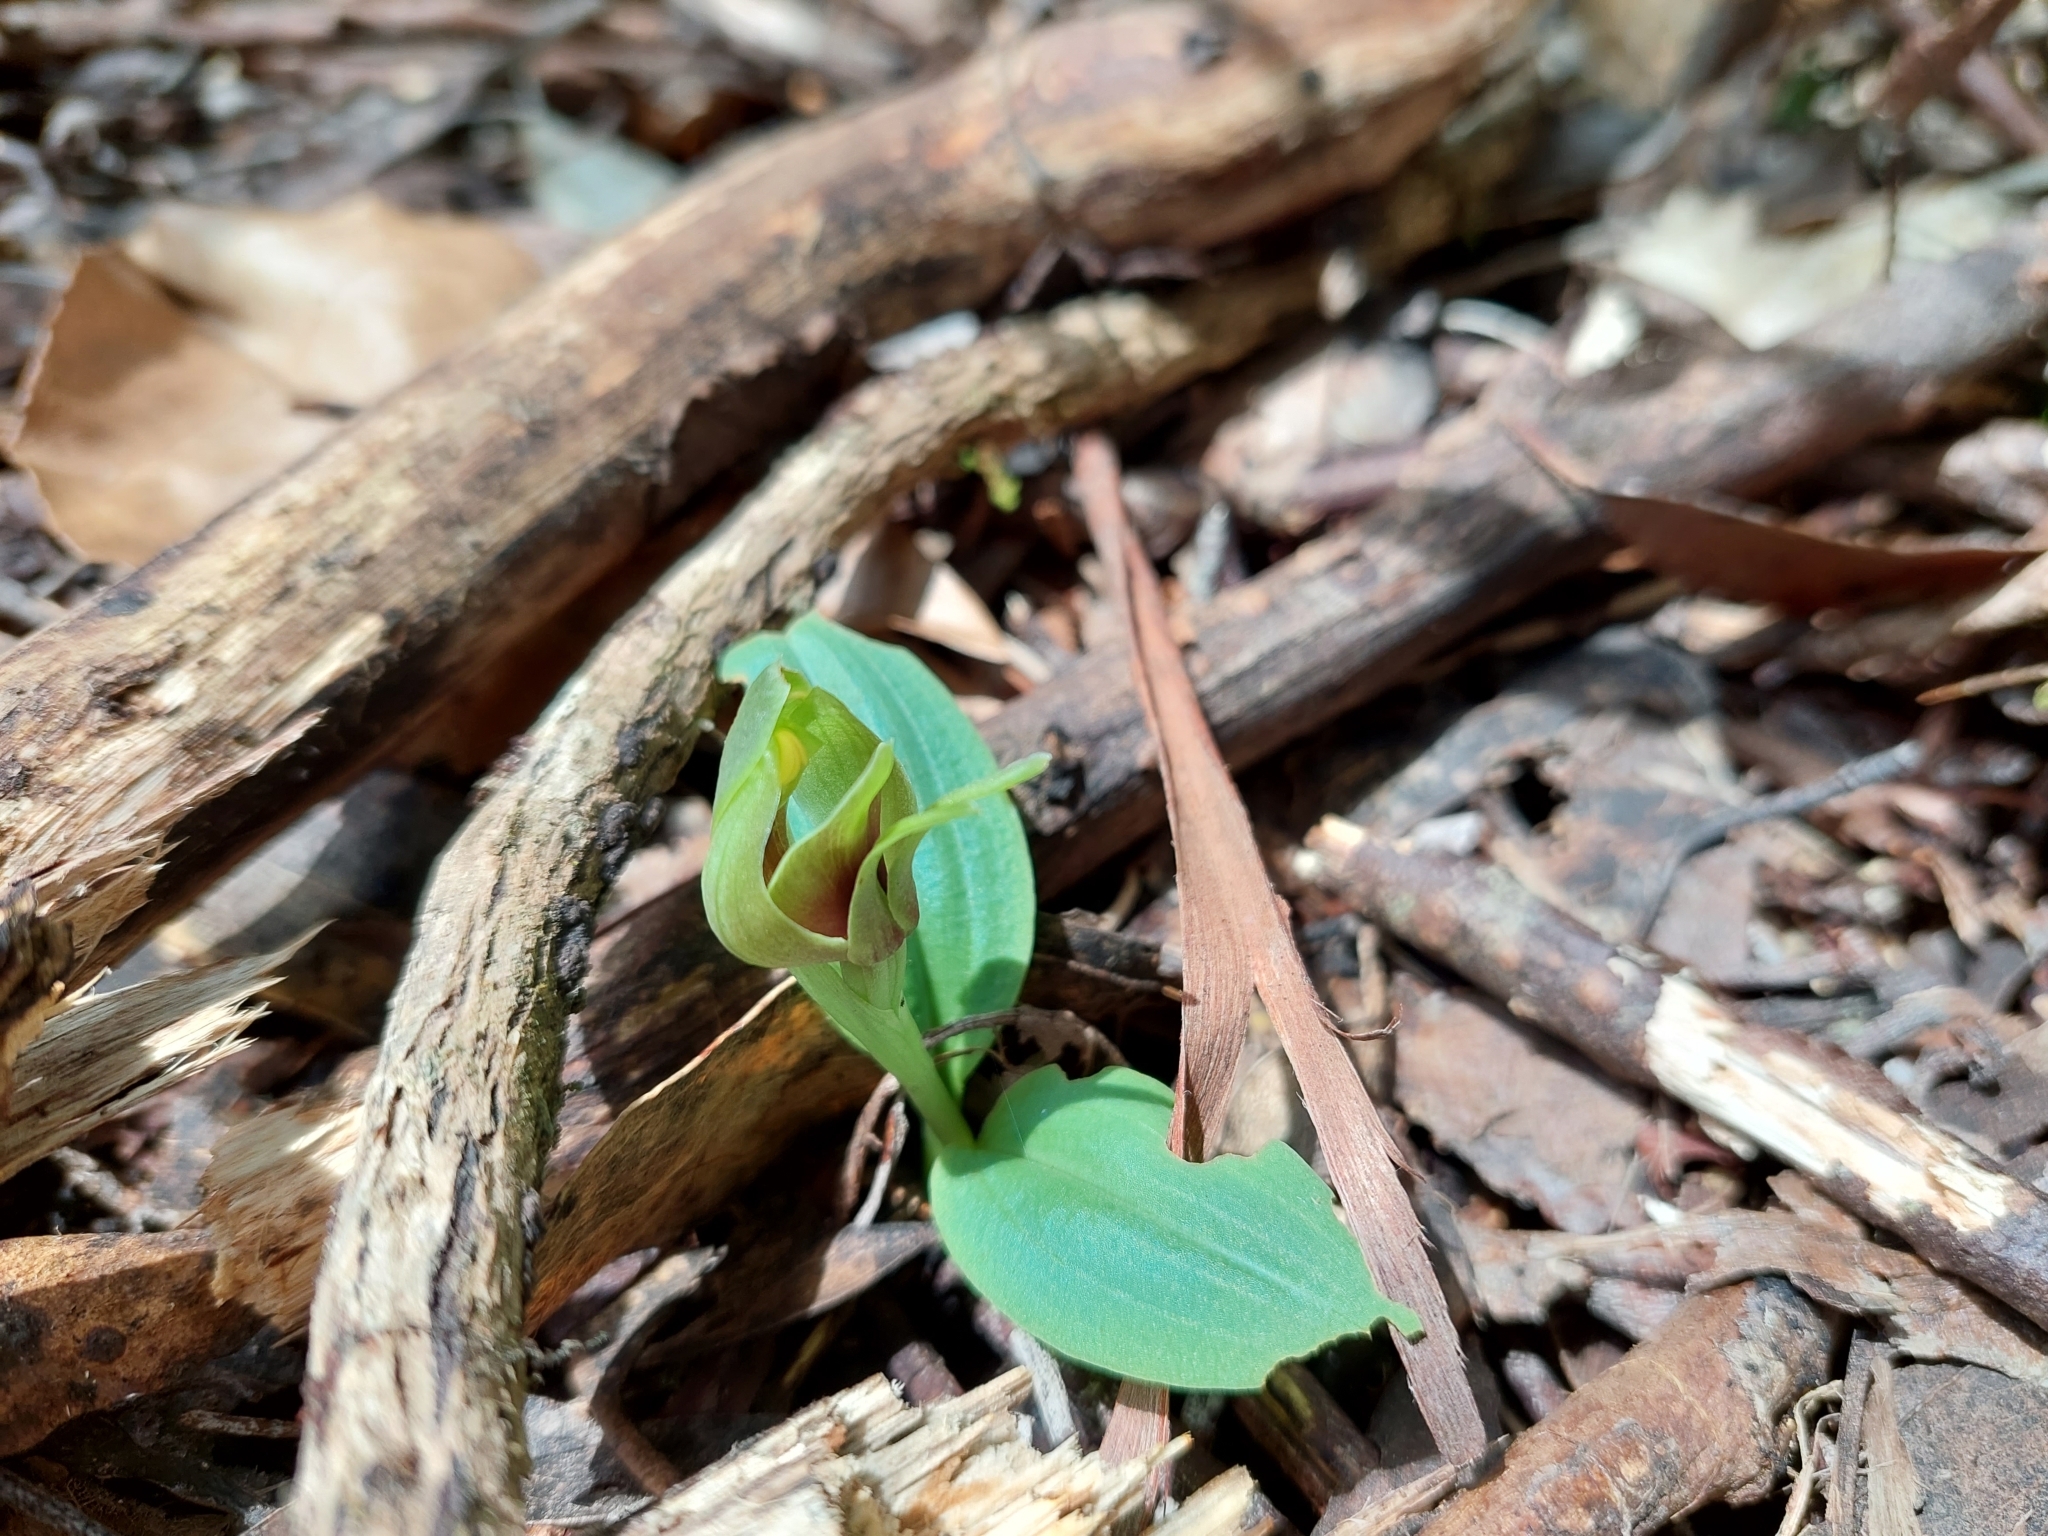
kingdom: Plantae
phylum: Tracheophyta
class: Liliopsida
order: Asparagales
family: Orchidaceae
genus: Chiloglottis
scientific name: Chiloglottis valida
